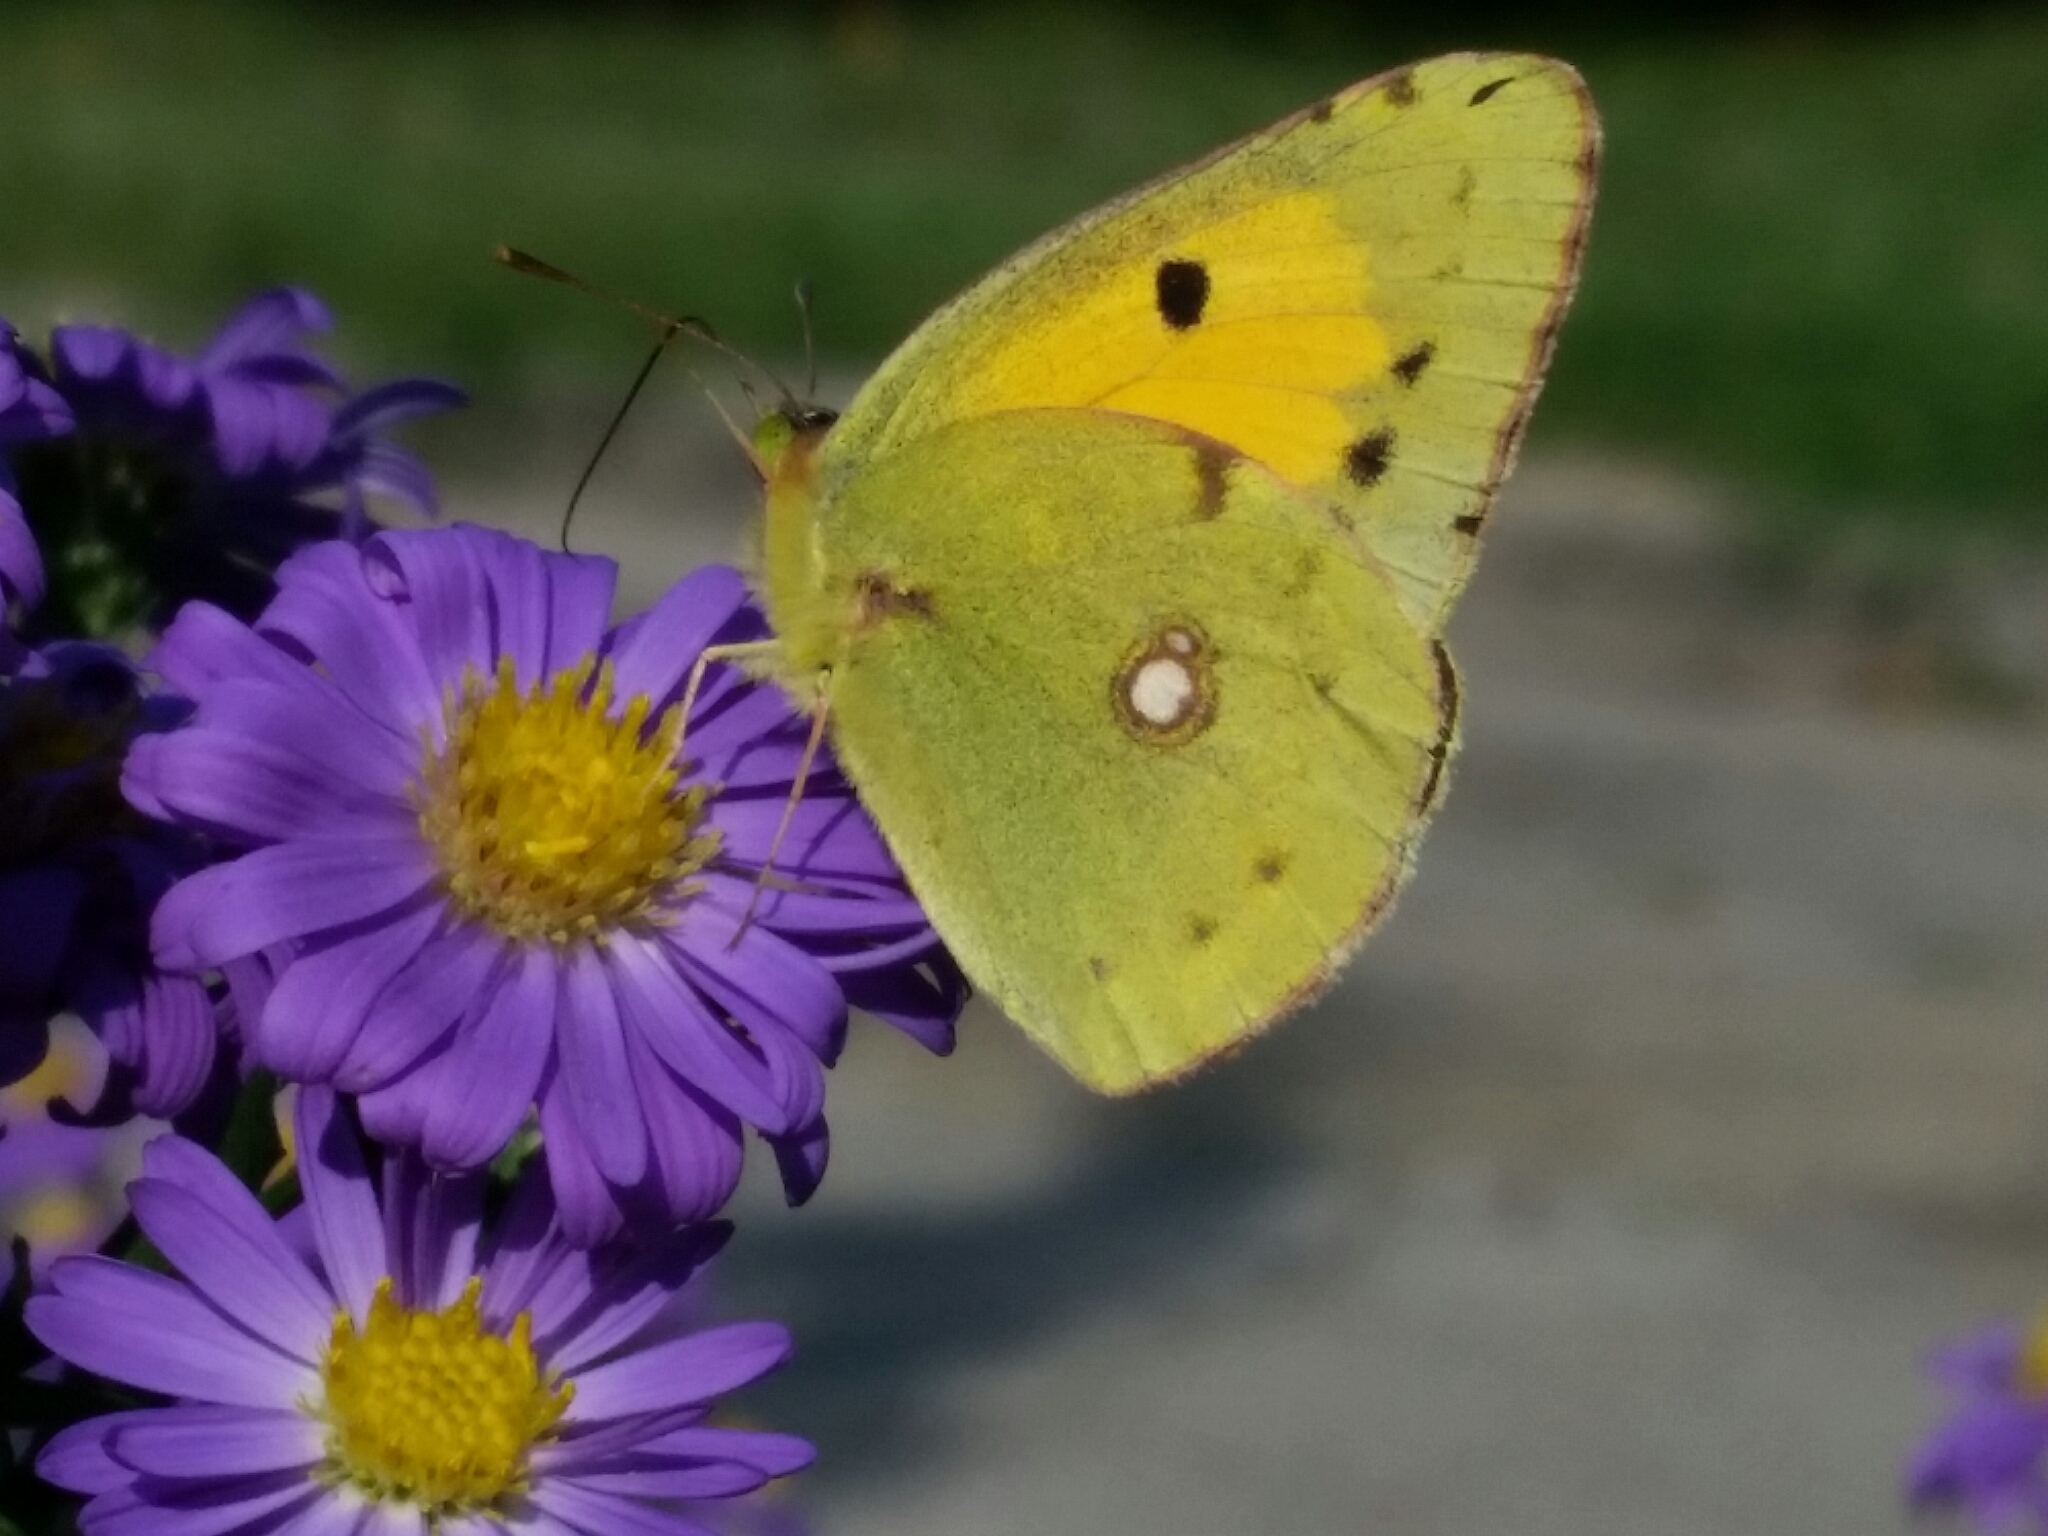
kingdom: Animalia
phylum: Arthropoda
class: Insecta
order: Lepidoptera
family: Pieridae
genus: Colias
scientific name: Colias croceus
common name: Clouded yellow
